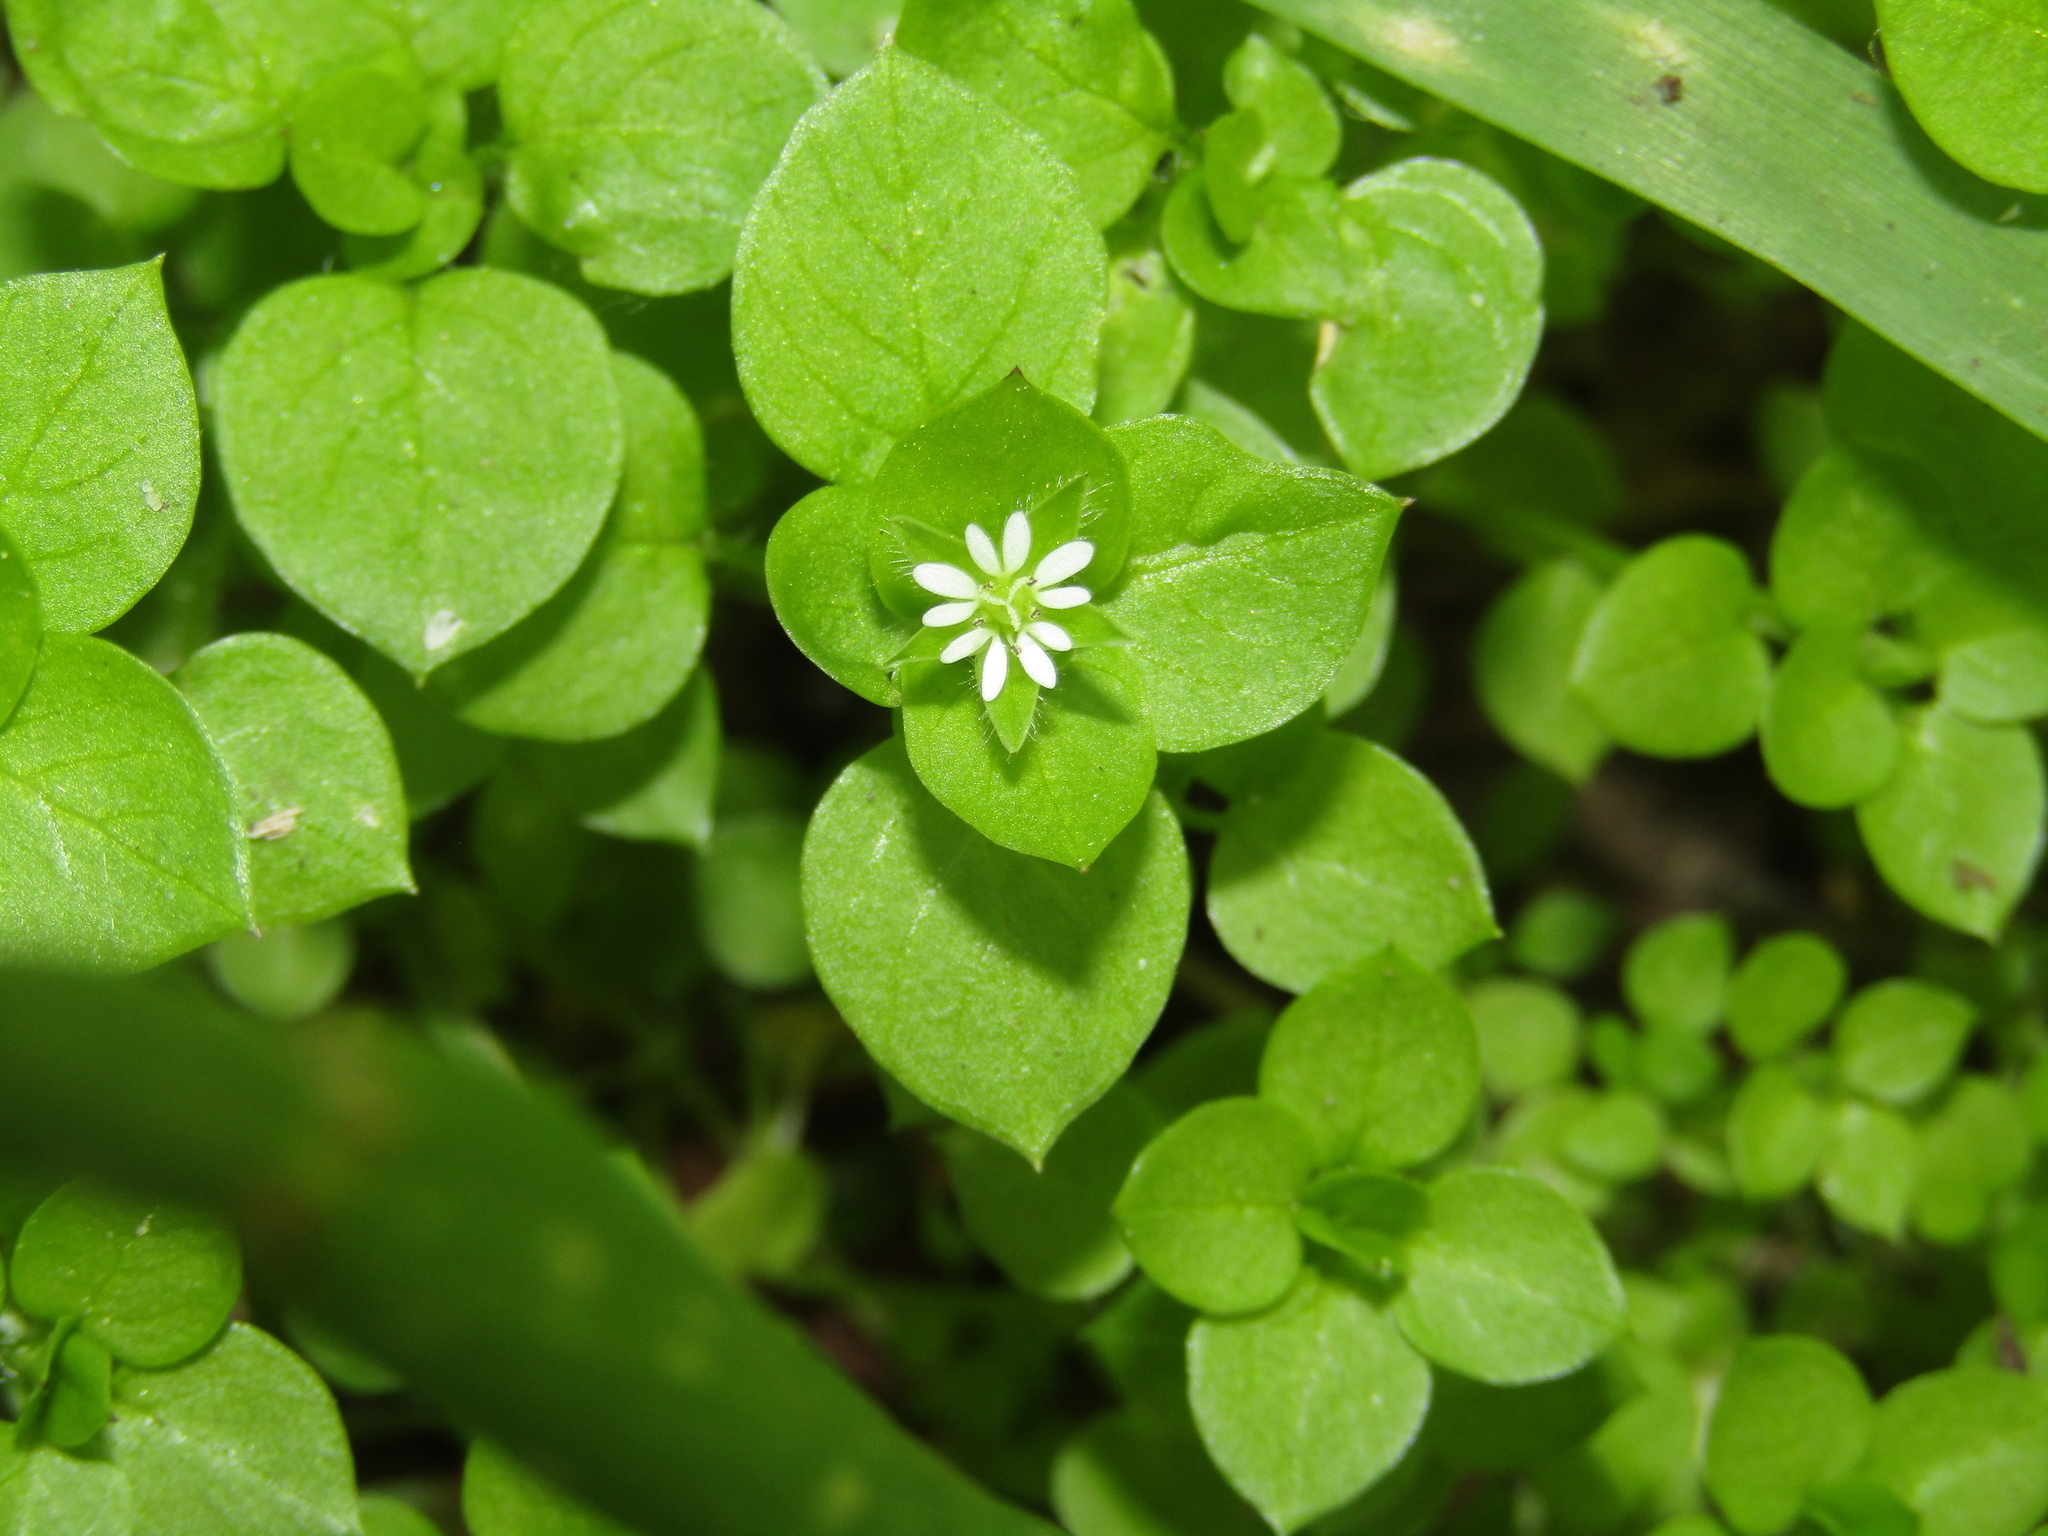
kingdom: Plantae
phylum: Tracheophyta
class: Magnoliopsida
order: Caryophyllales
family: Caryophyllaceae
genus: Stellaria
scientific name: Stellaria media
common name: Common chickweed
